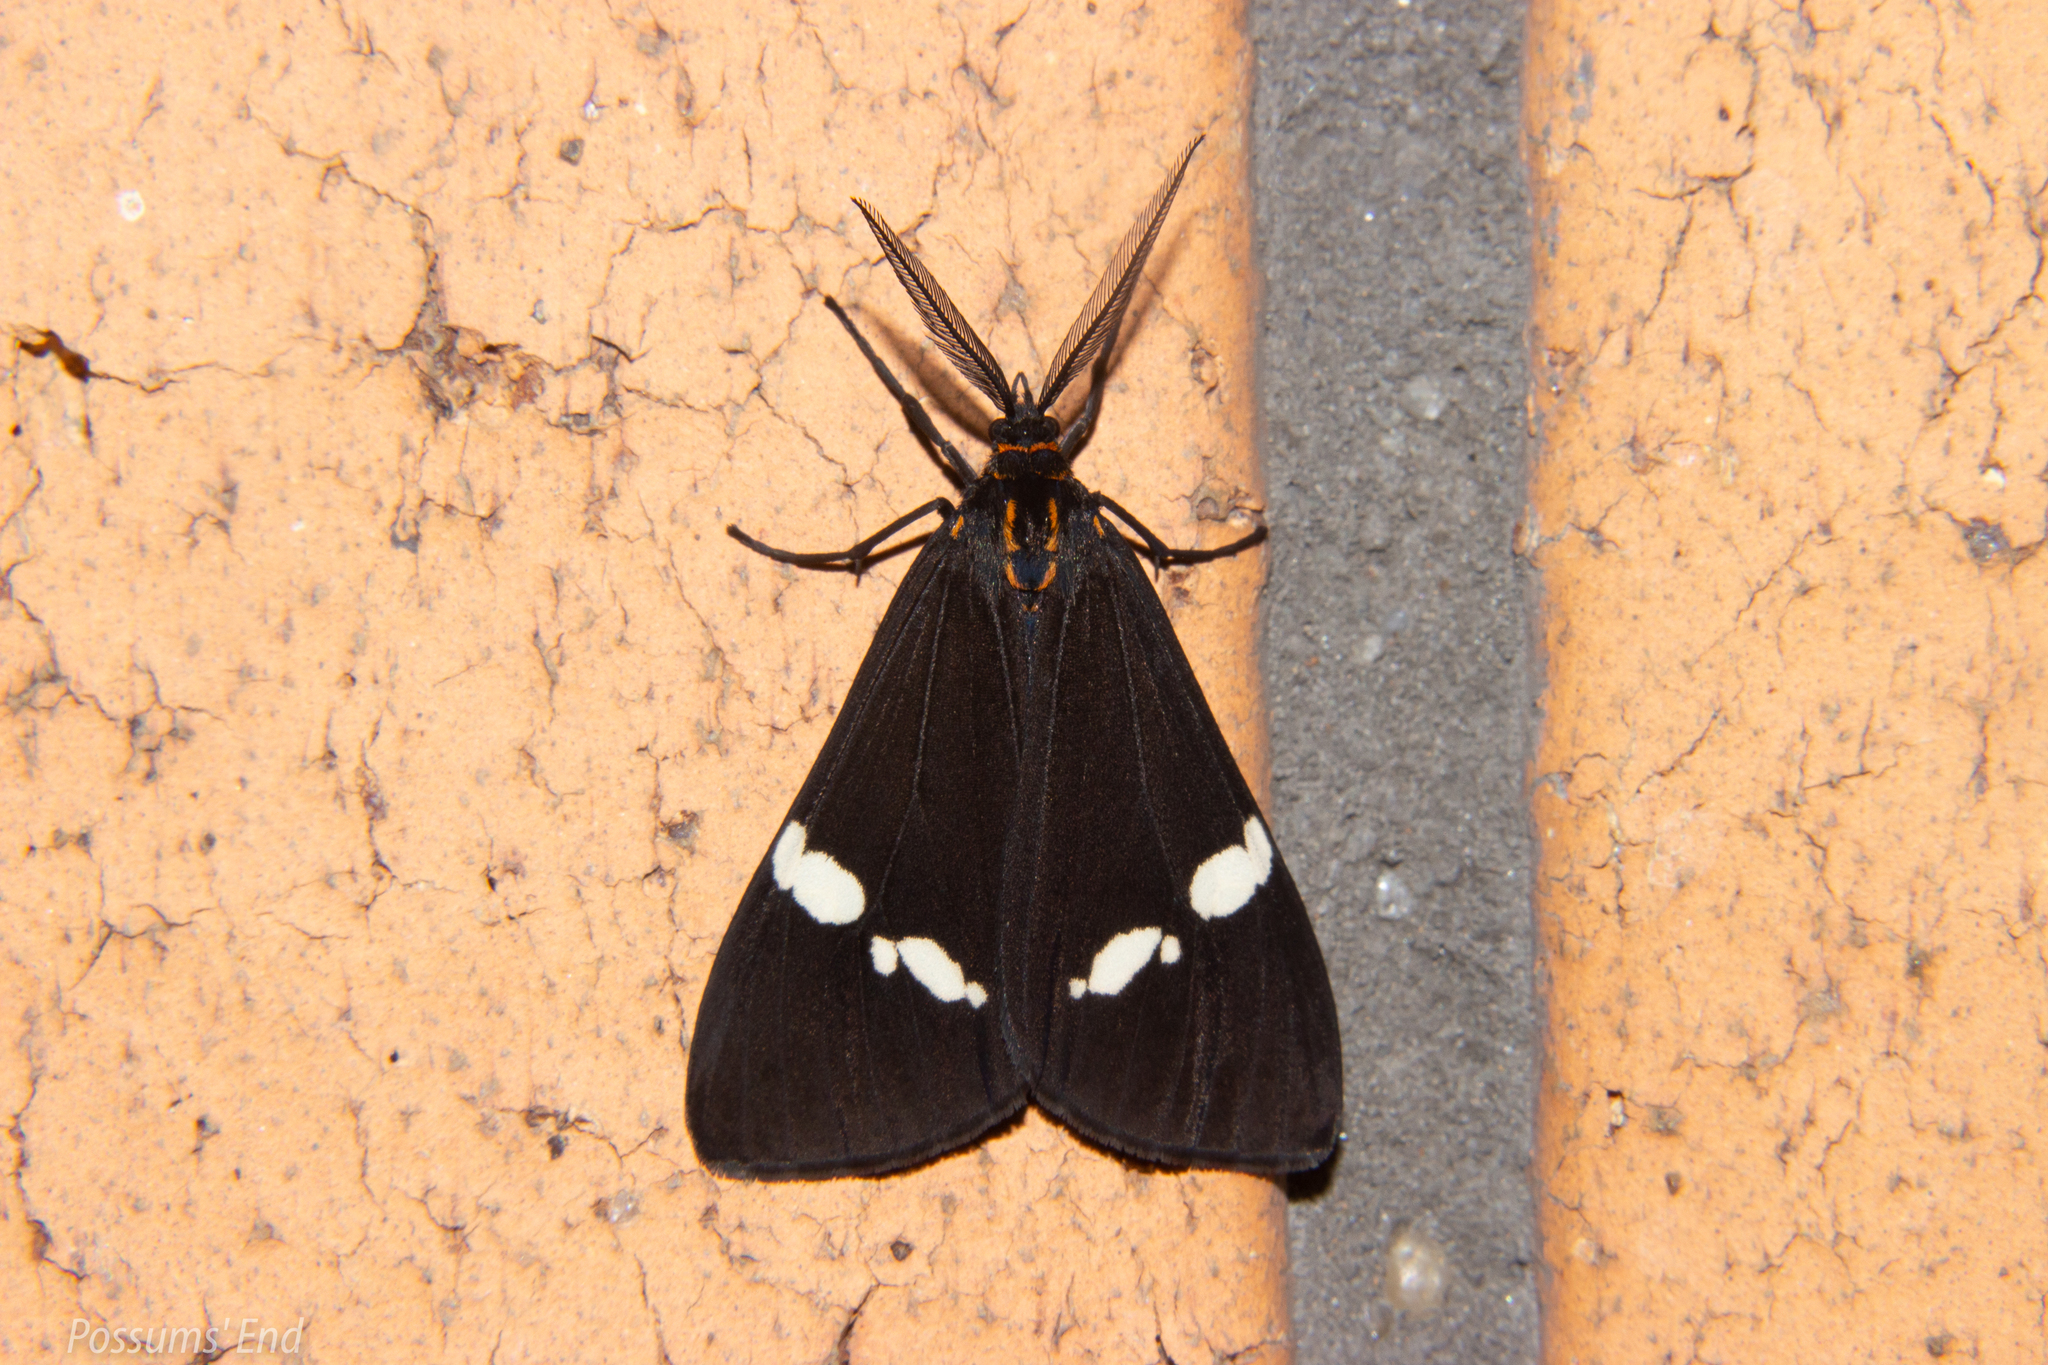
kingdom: Animalia
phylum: Arthropoda
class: Insecta
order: Lepidoptera
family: Erebidae
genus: Nyctemera
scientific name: Nyctemera annulatum
